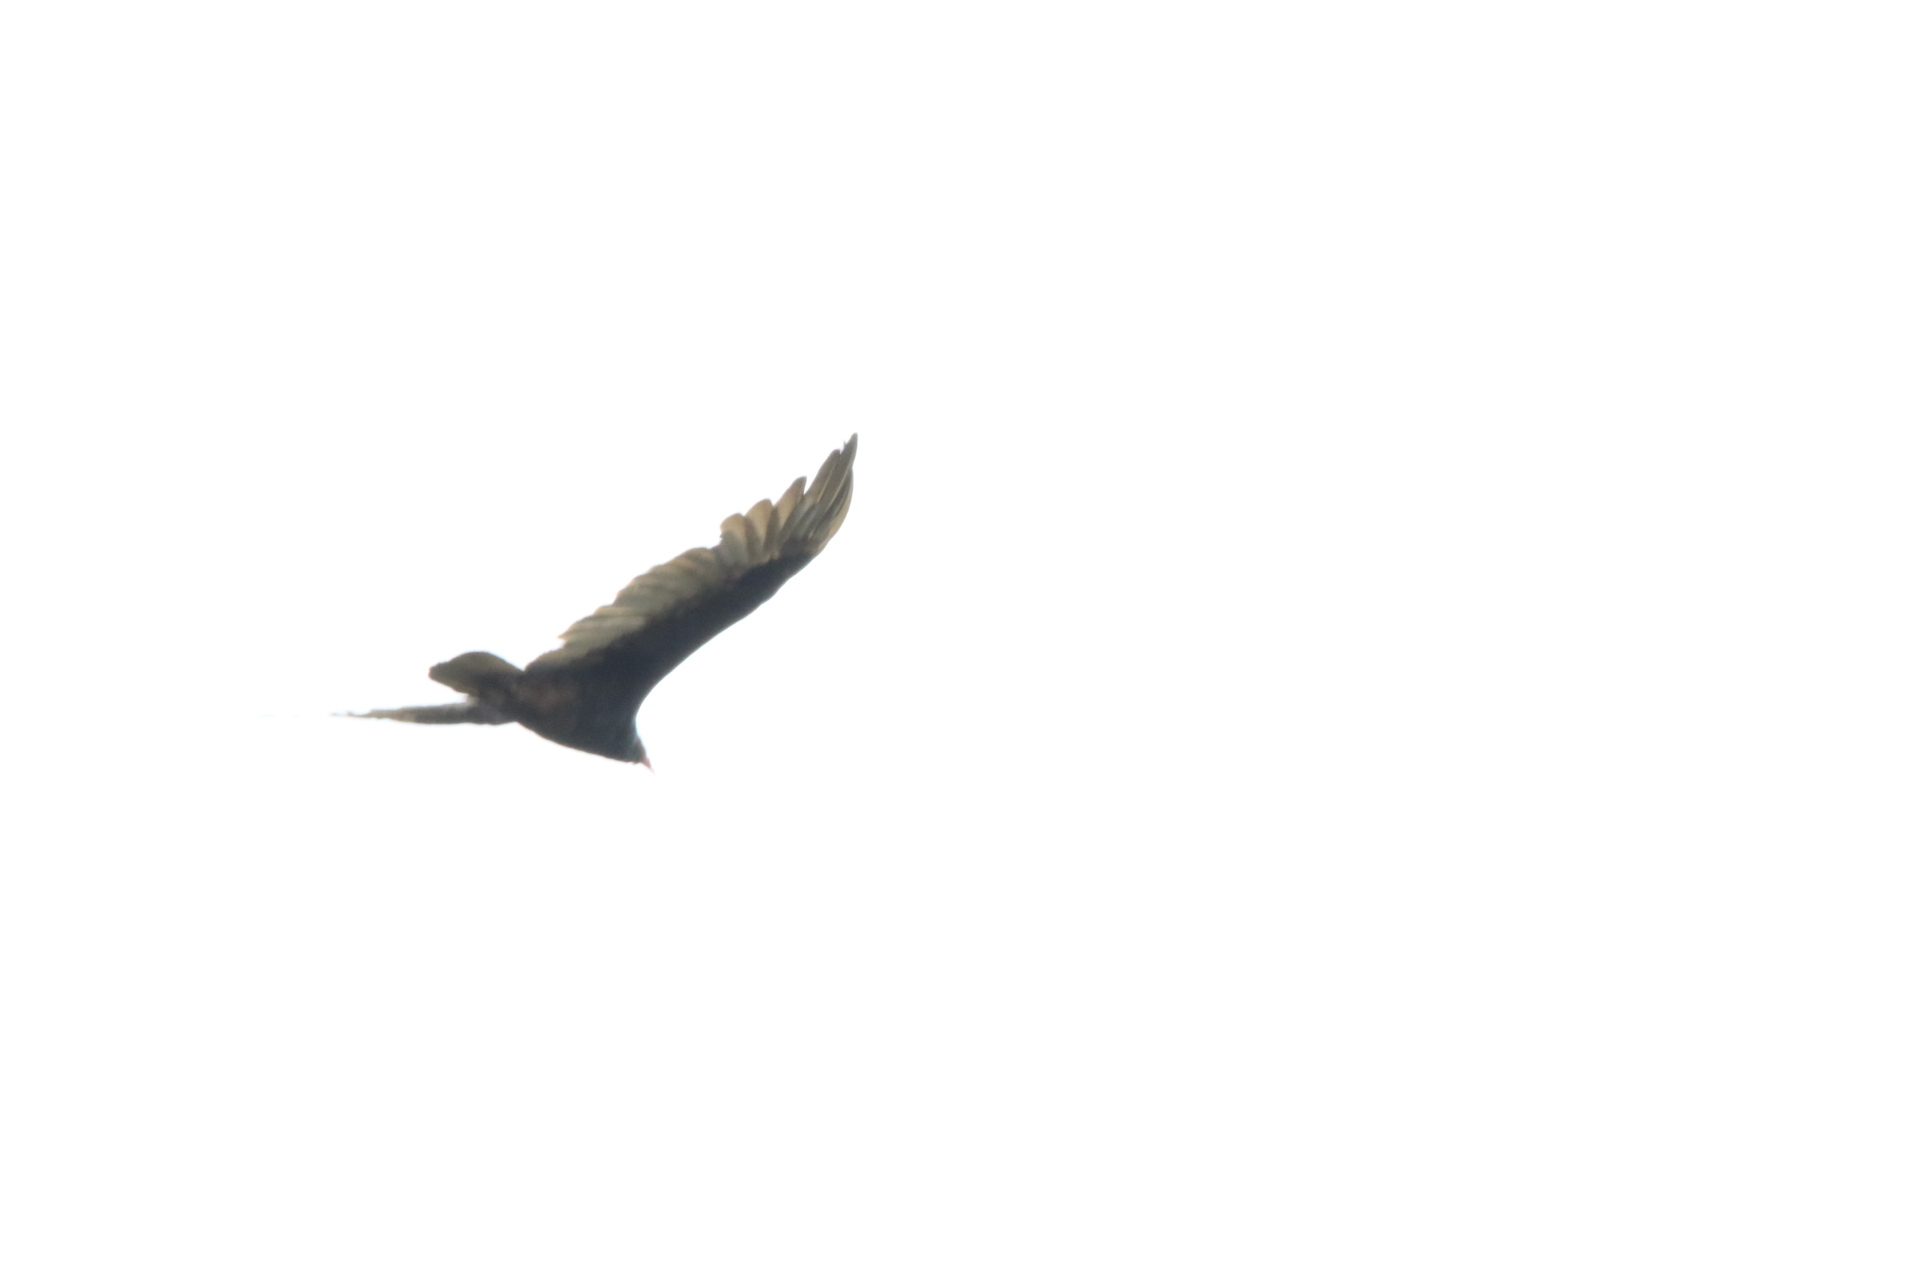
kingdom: Animalia
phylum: Chordata
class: Aves
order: Accipitriformes
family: Cathartidae
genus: Cathartes
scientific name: Cathartes aura
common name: Turkey vulture
